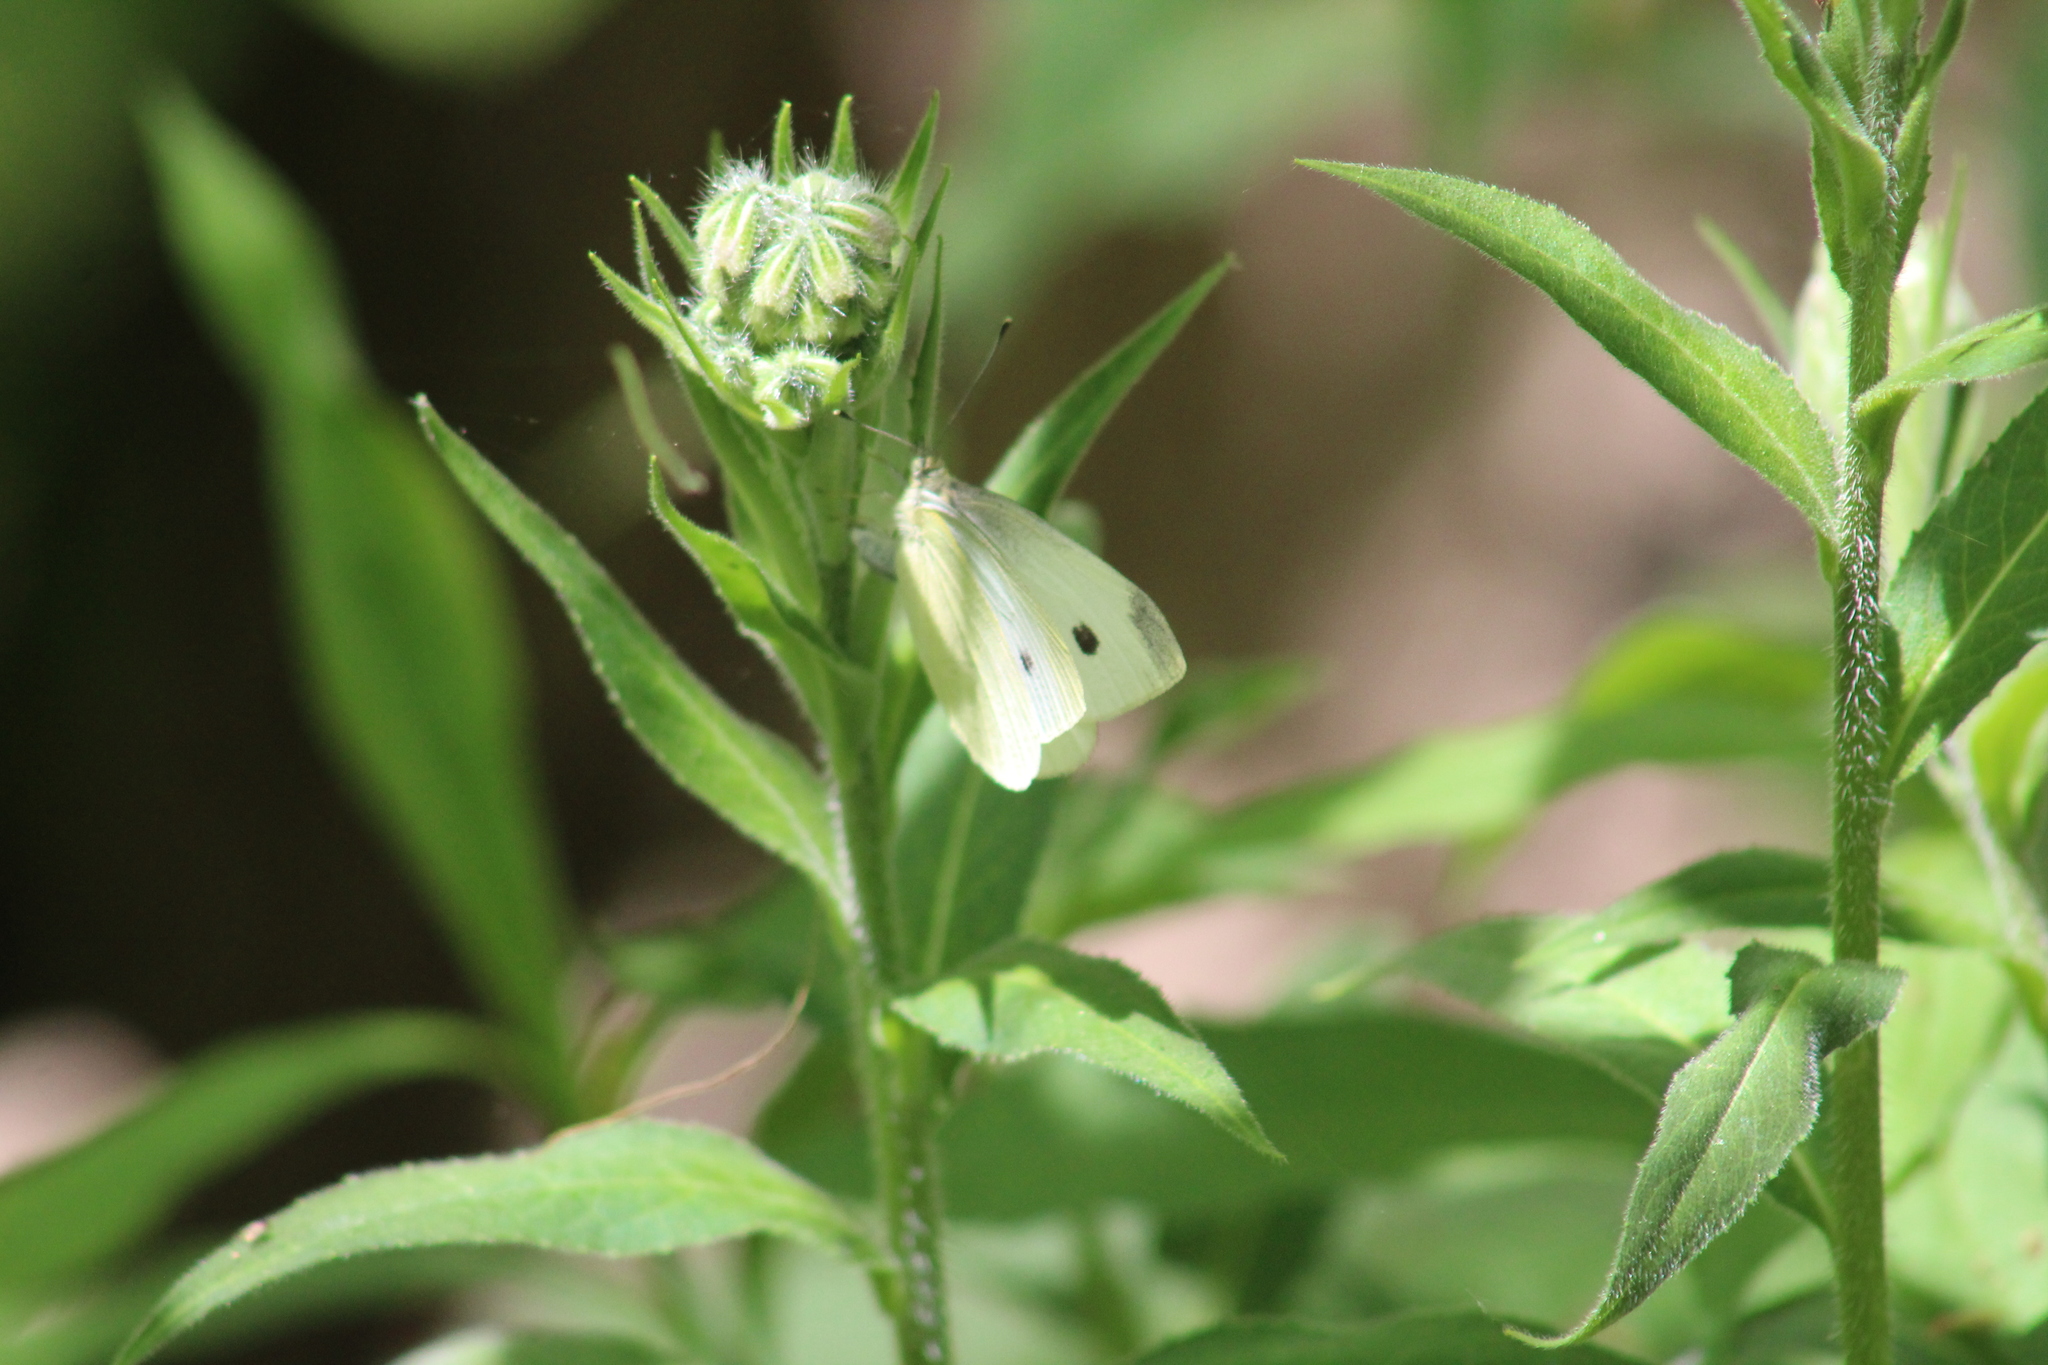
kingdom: Animalia
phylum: Arthropoda
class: Insecta
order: Lepidoptera
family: Pieridae
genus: Pieris
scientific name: Pieris rapae
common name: Small white
